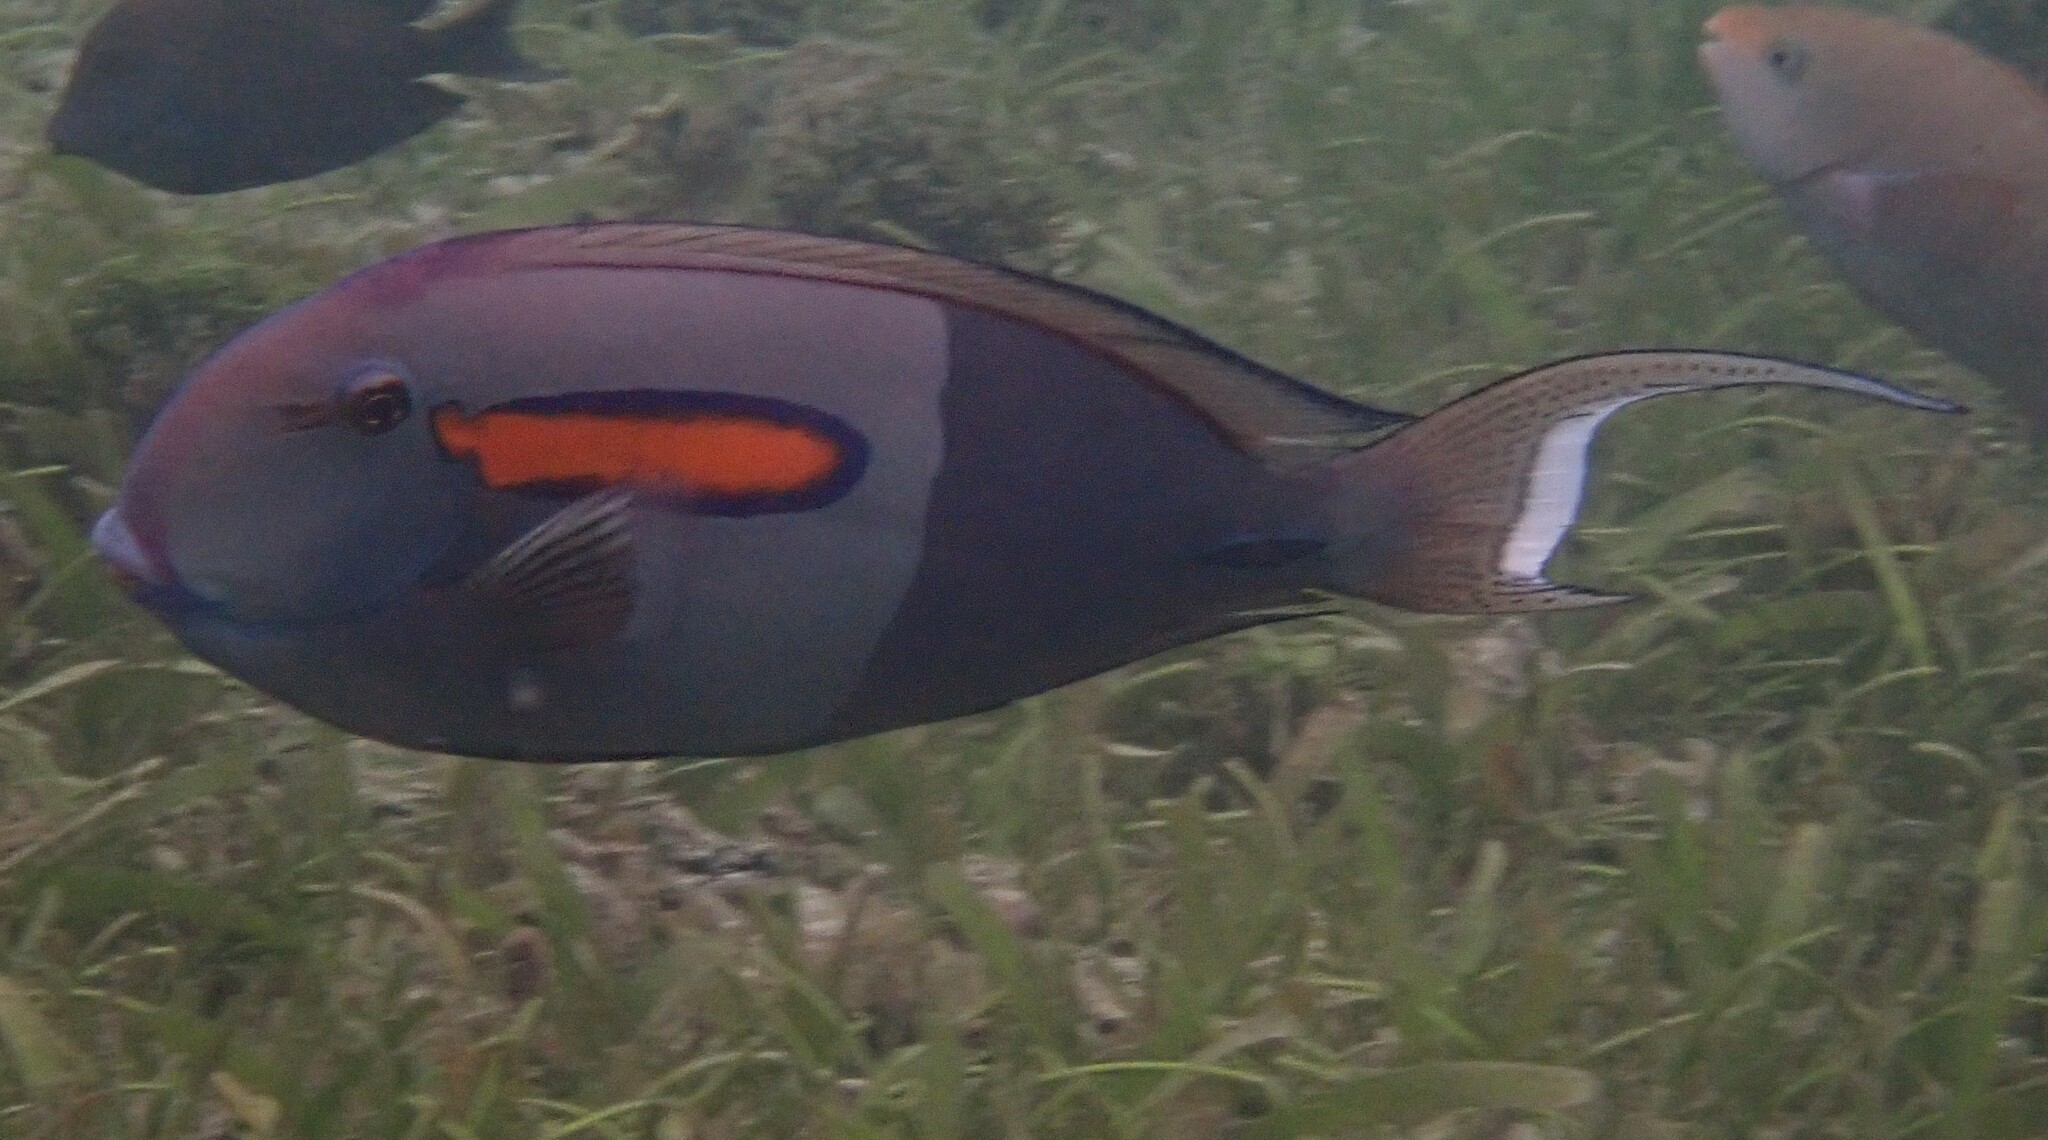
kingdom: Animalia
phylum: Chordata
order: Perciformes
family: Acanthuridae
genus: Acanthurus
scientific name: Acanthurus olivaceus
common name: Gendarme fish
